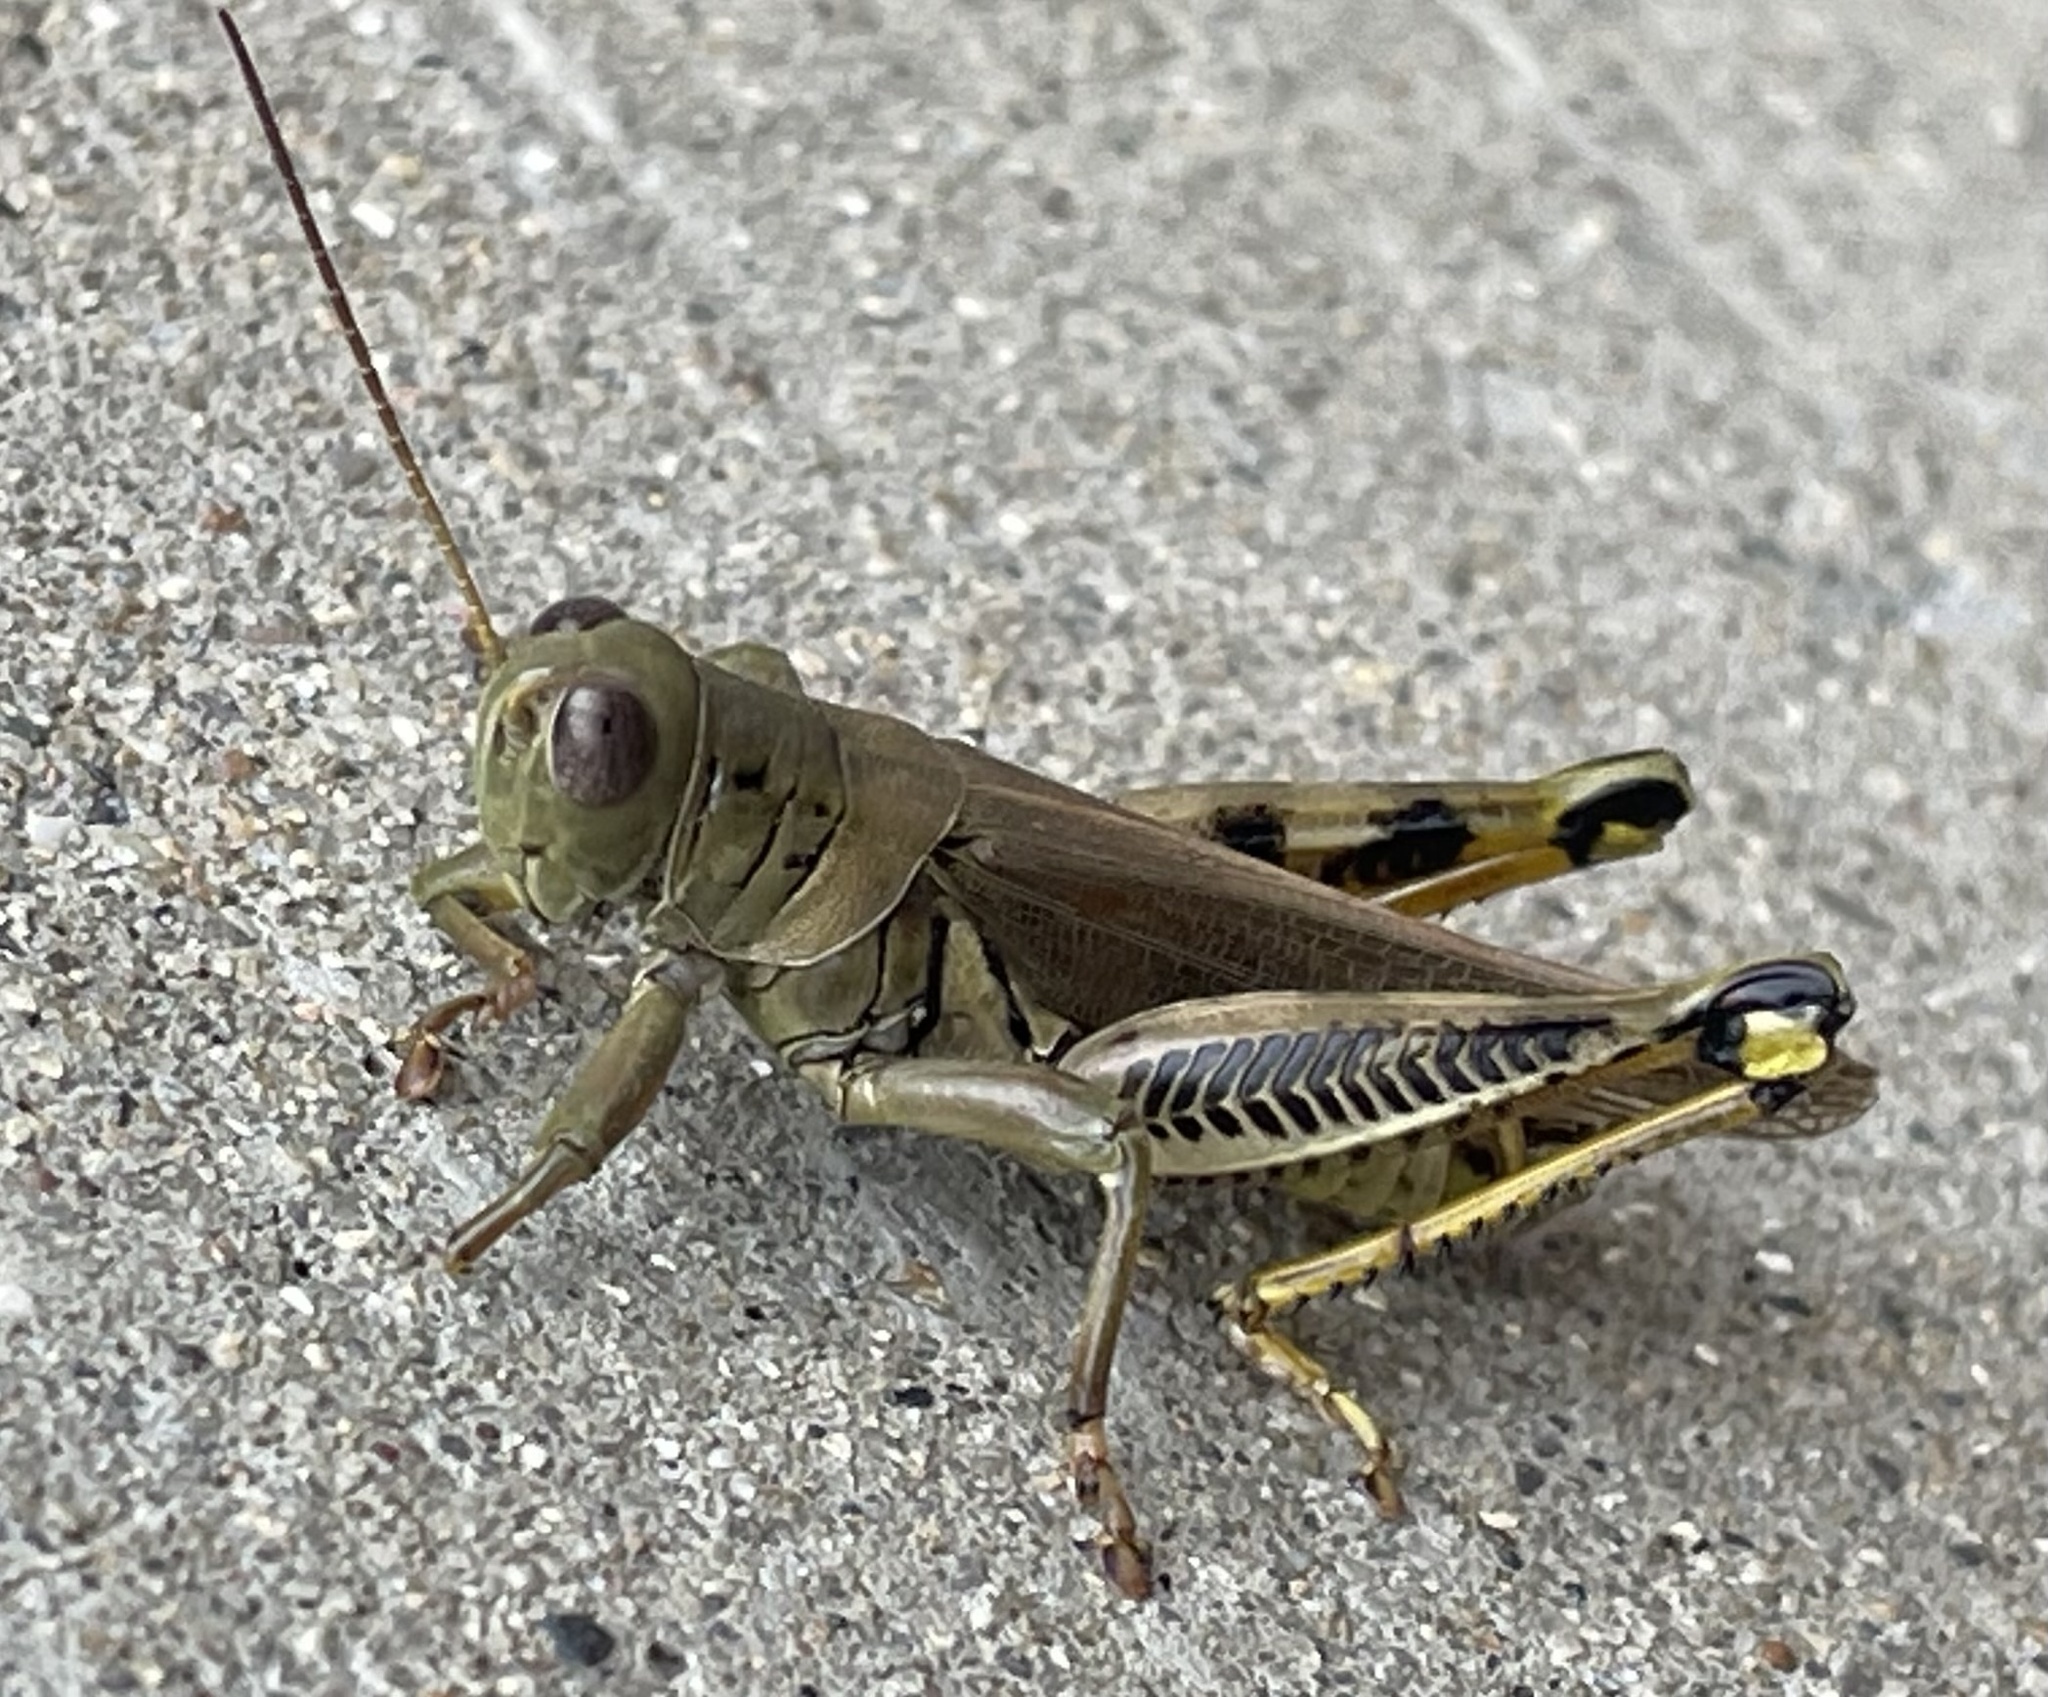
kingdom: Animalia
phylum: Arthropoda
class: Insecta
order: Orthoptera
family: Acrididae
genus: Melanoplus
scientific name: Melanoplus differentialis
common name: Differential grasshopper
